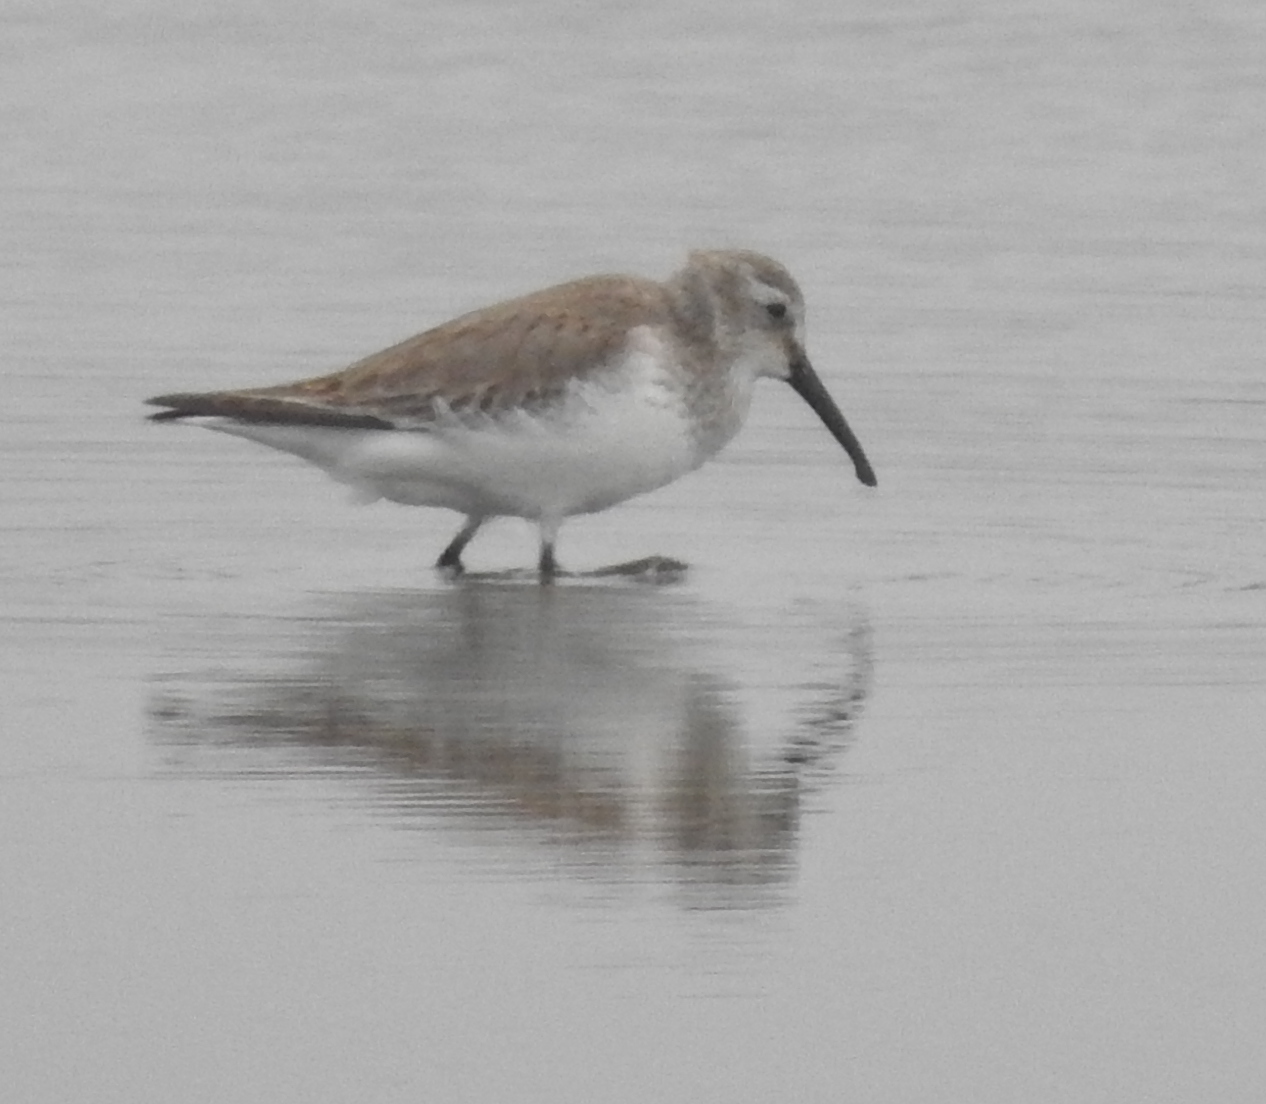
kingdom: Animalia
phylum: Chordata
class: Aves
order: Charadriiformes
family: Scolopacidae
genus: Calidris
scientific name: Calidris alpina
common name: Dunlin
